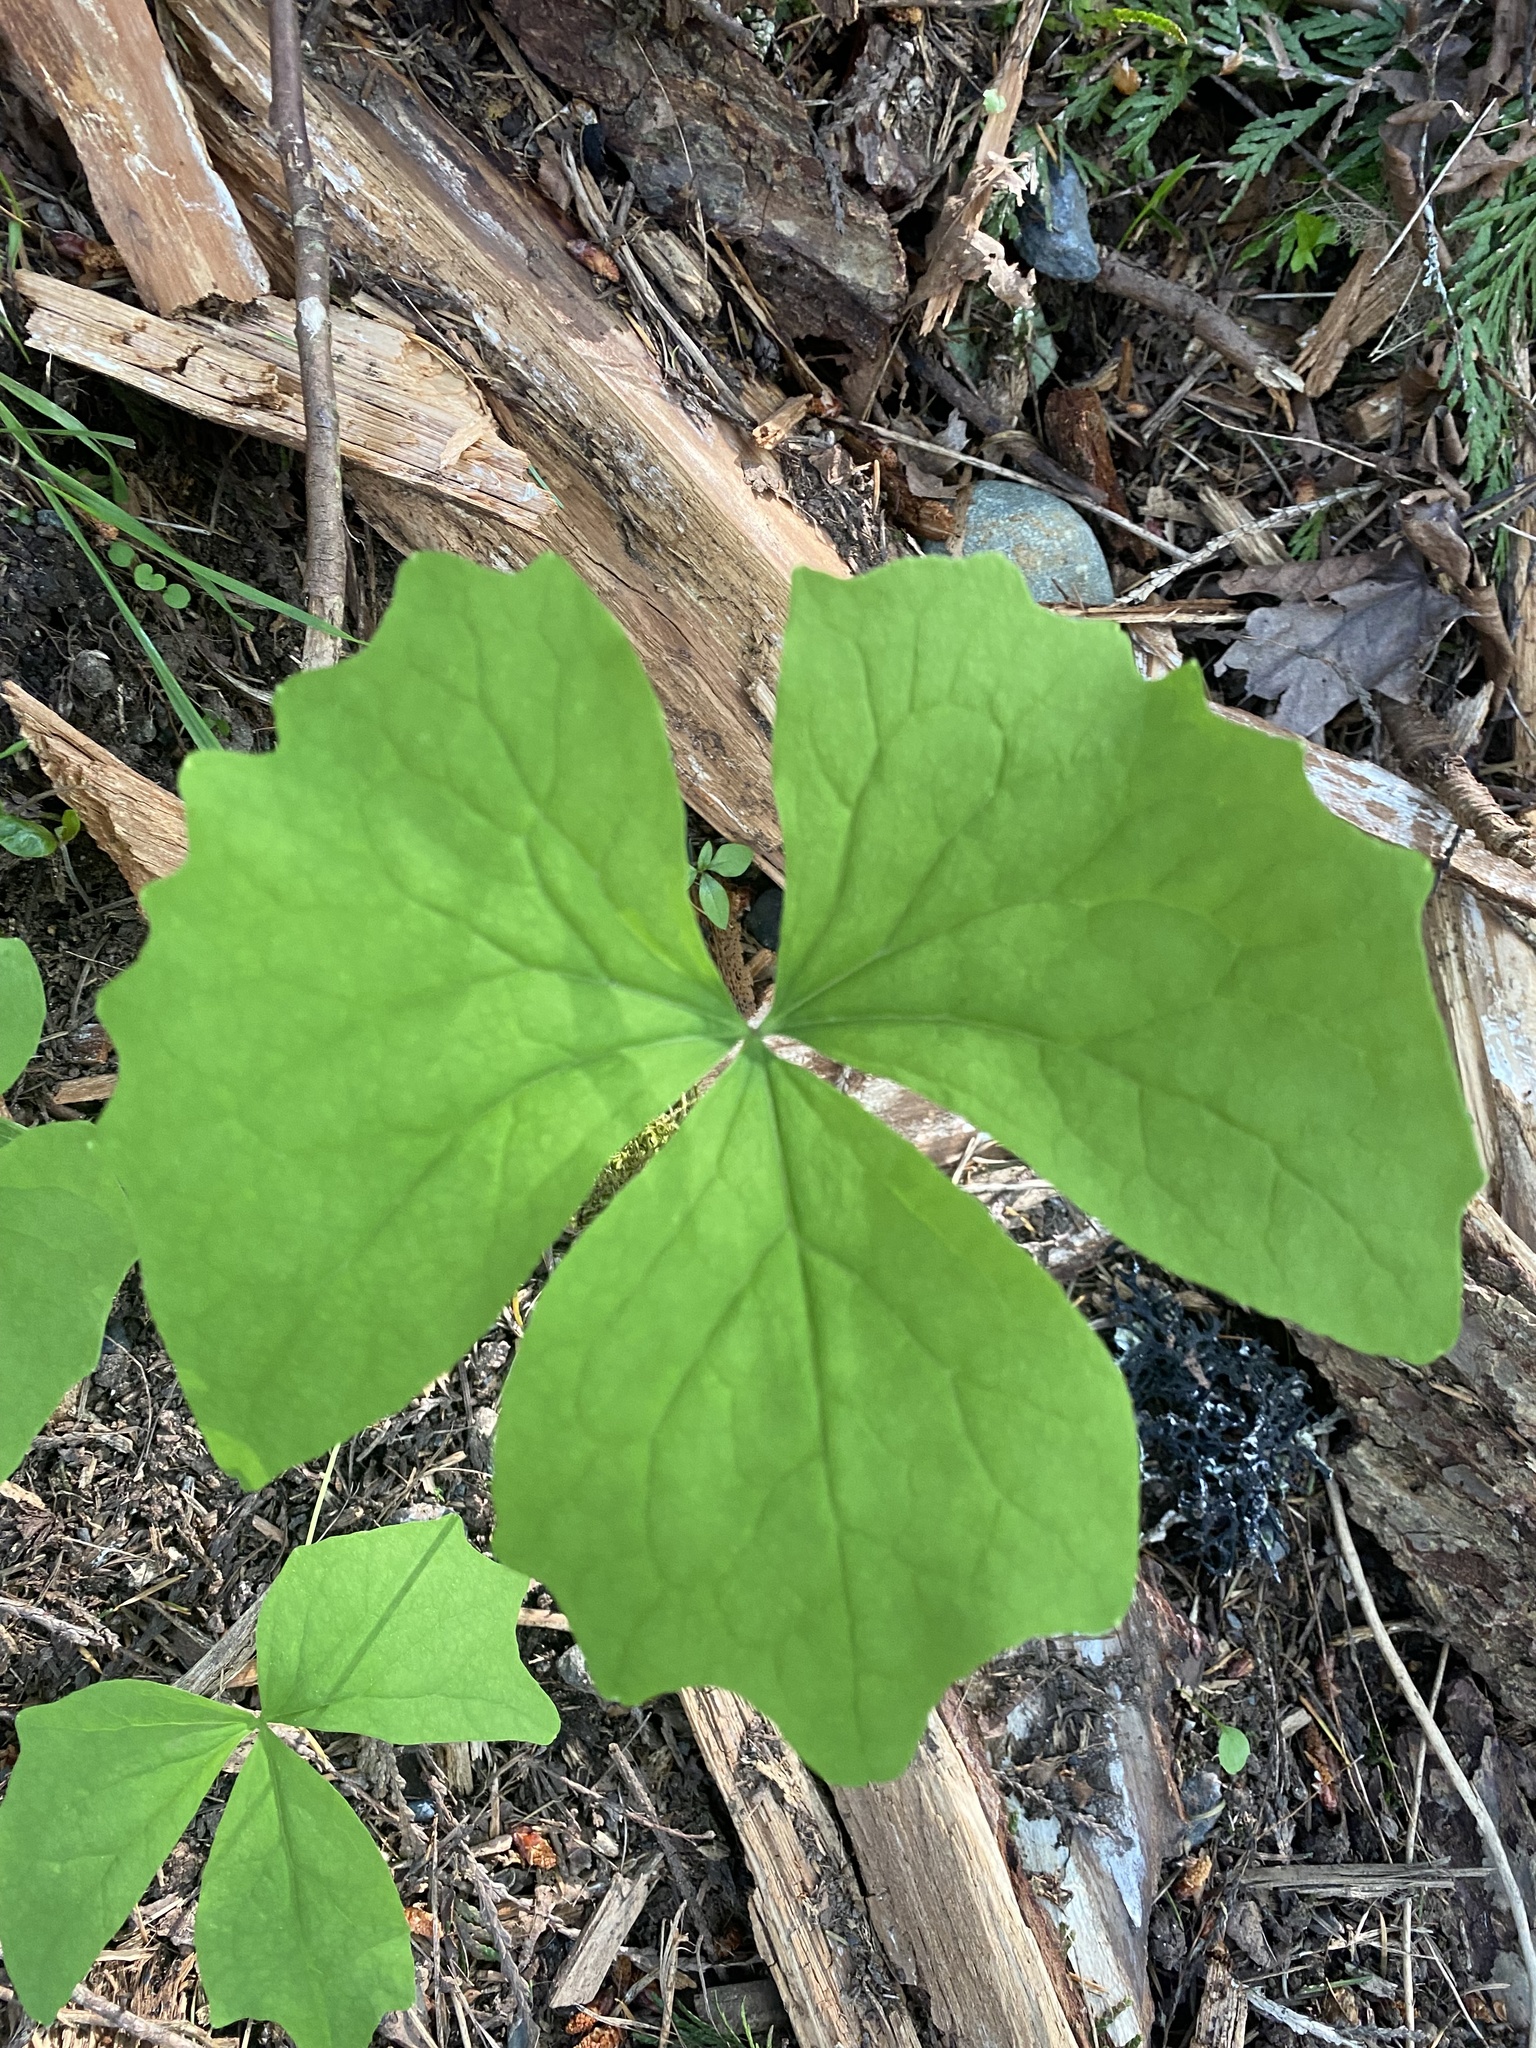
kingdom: Plantae
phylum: Tracheophyta
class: Magnoliopsida
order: Ranunculales
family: Berberidaceae
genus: Achlys
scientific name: Achlys triphylla
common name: Vanilla-leaf
